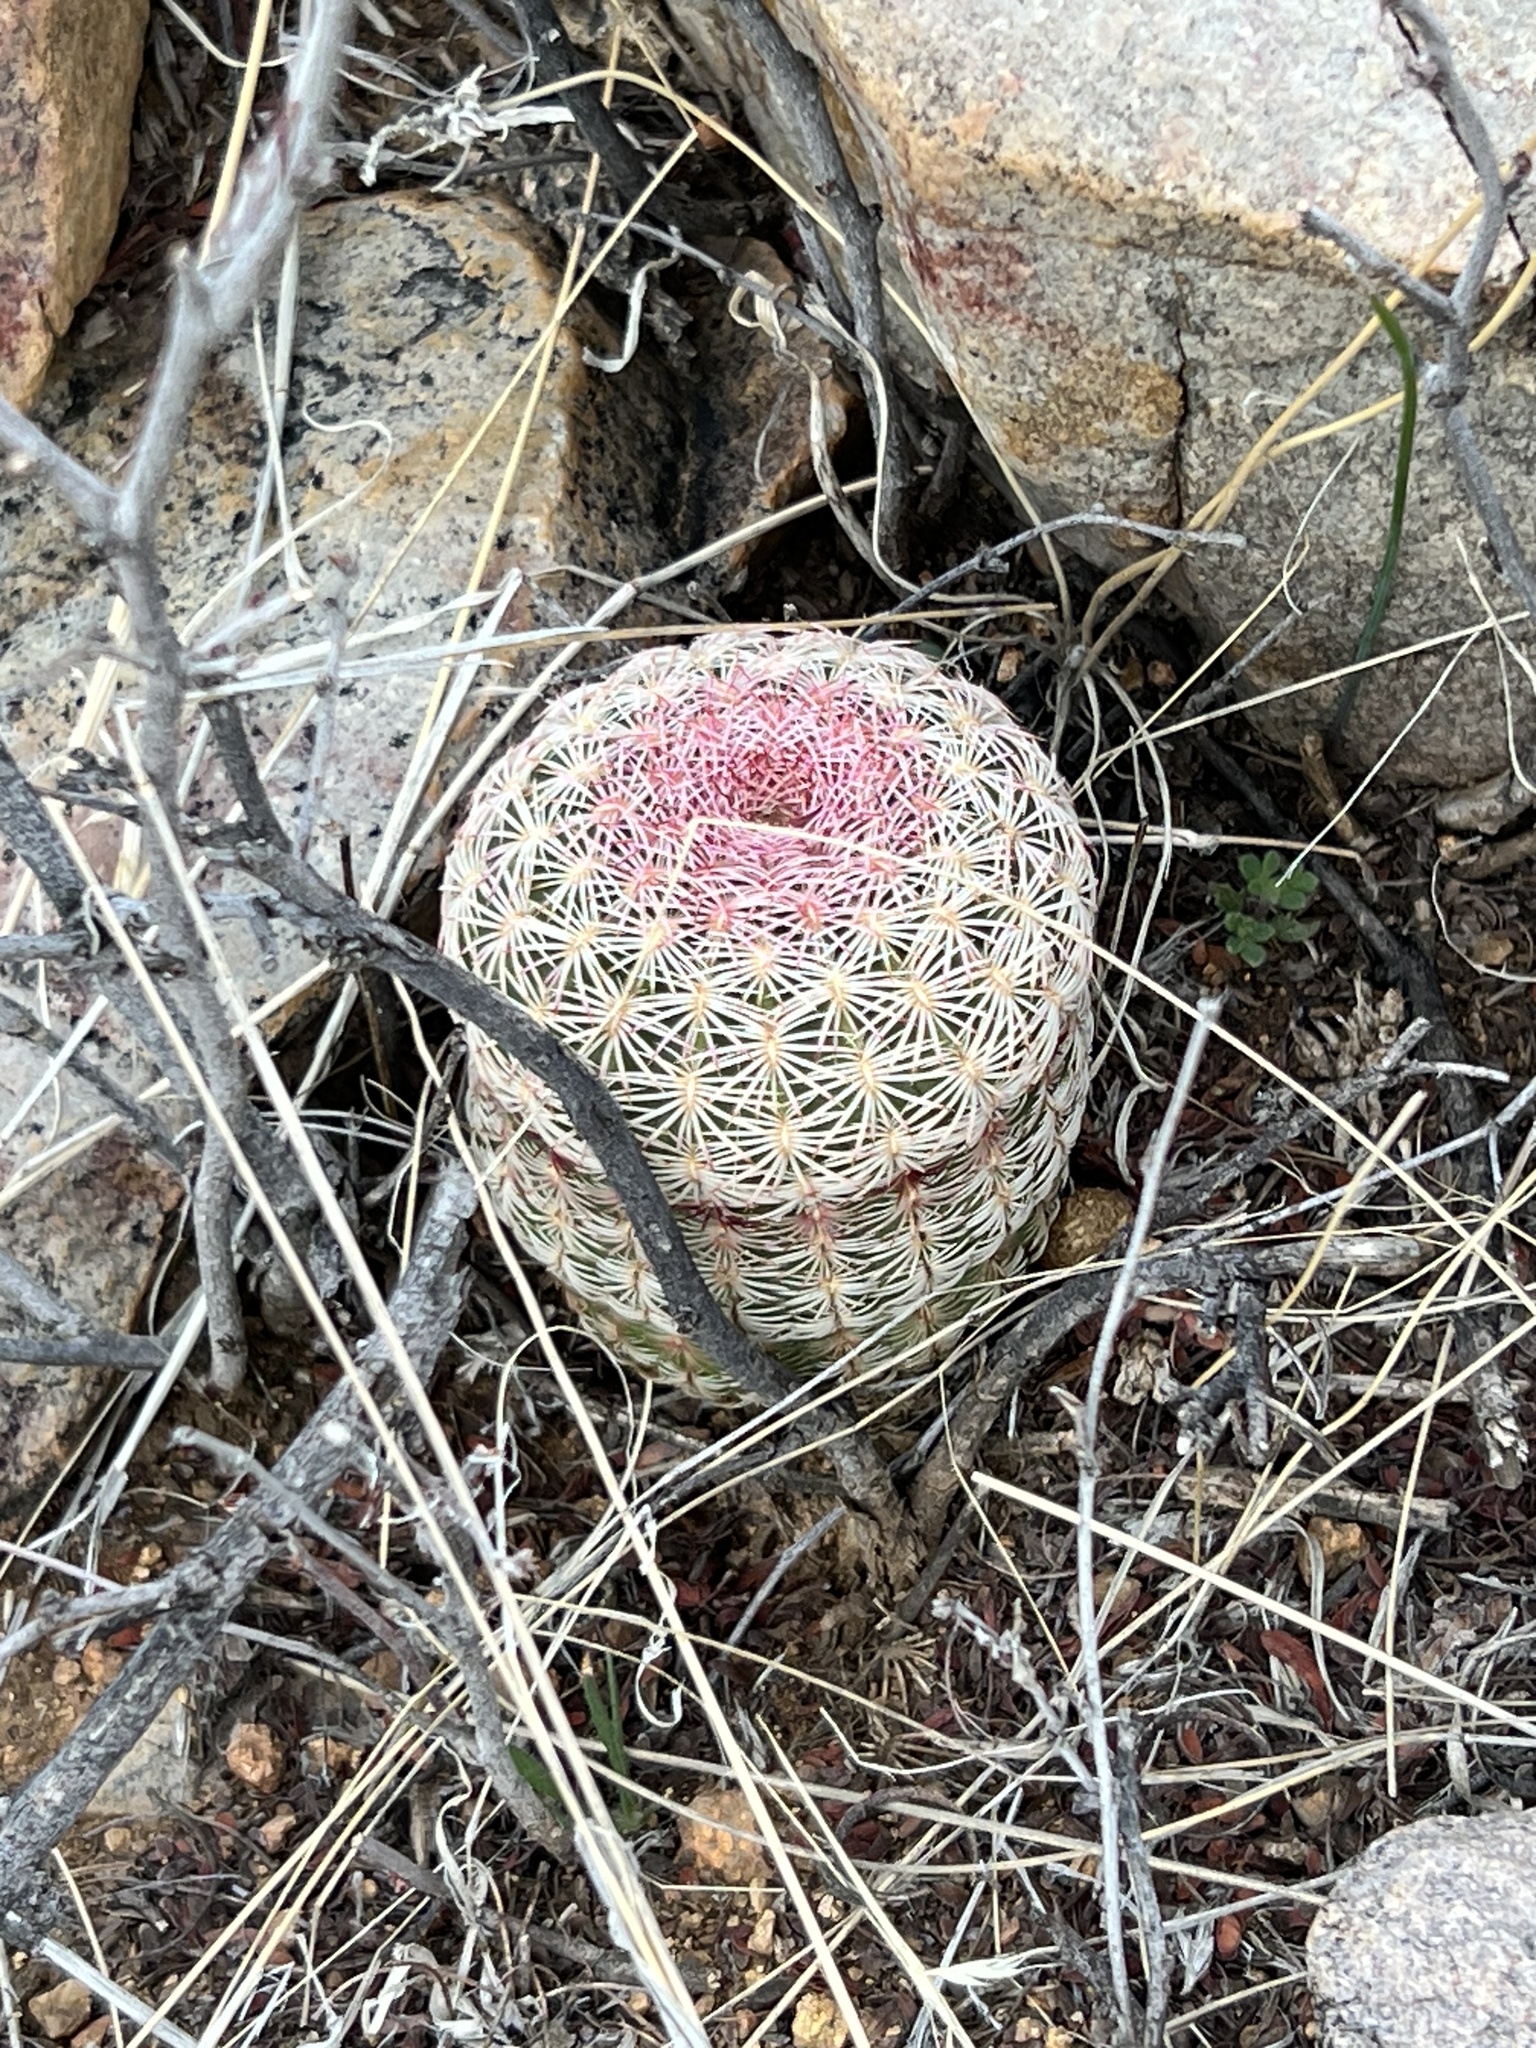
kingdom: Plantae
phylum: Tracheophyta
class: Magnoliopsida
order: Caryophyllales
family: Cactaceae
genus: Echinocereus
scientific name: Echinocereus rigidissimus
